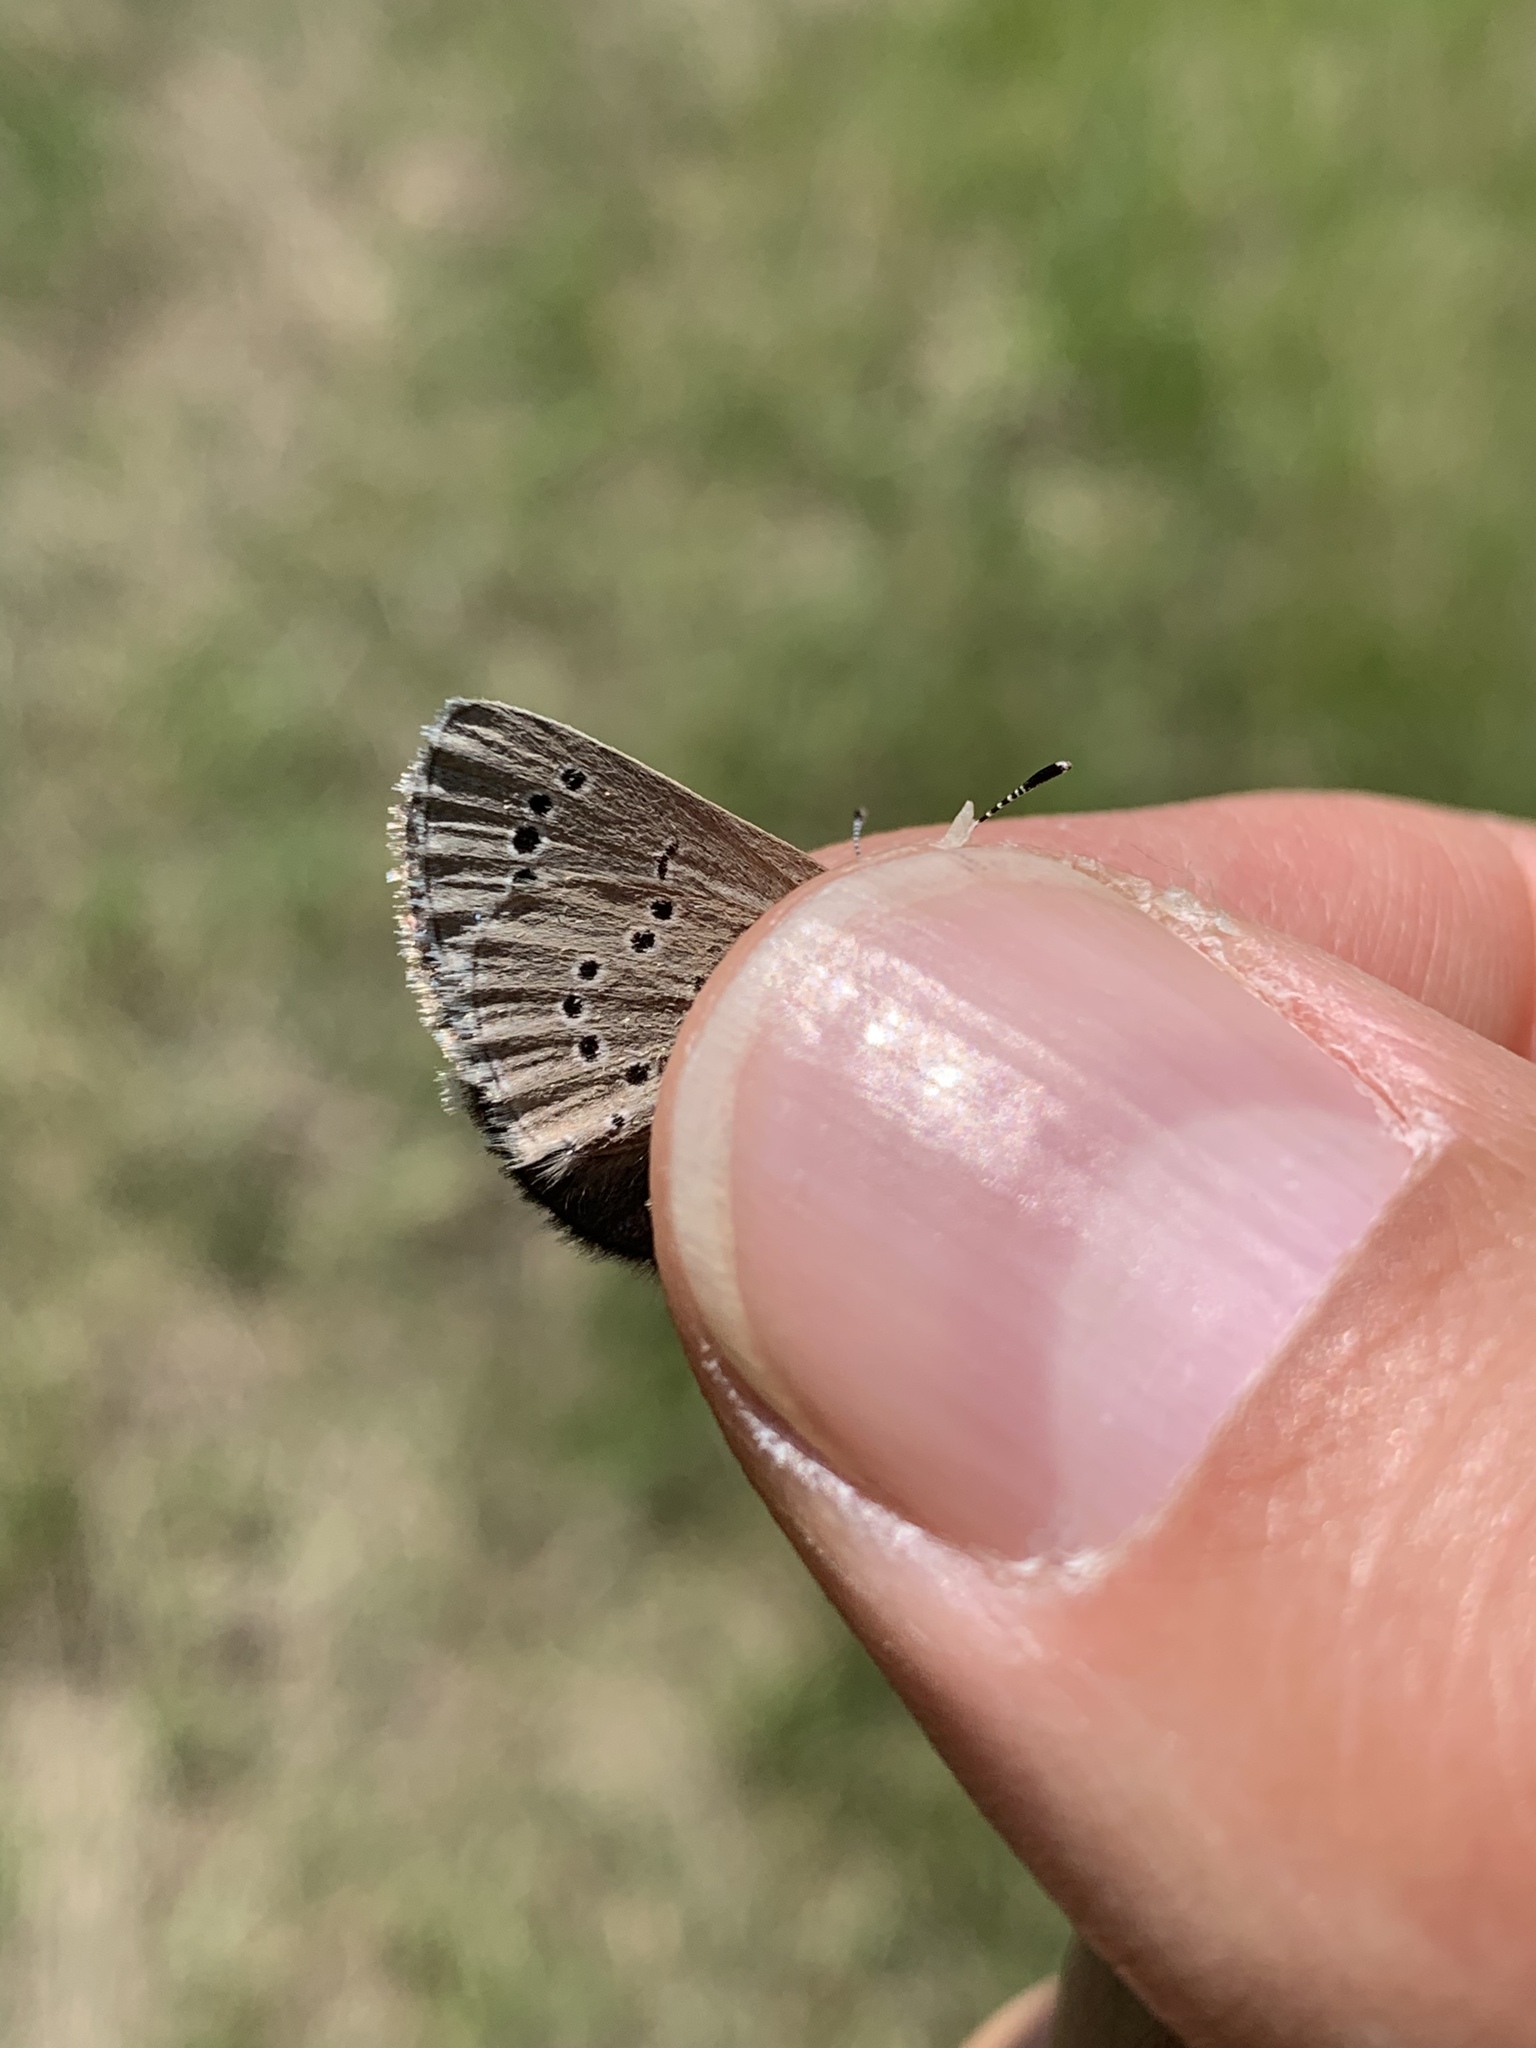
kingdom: Animalia
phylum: Arthropoda
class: Insecta
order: Lepidoptera
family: Lycaenidae
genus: Glaucopsyche
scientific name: Glaucopsyche lygdamus
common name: Silvery blue
